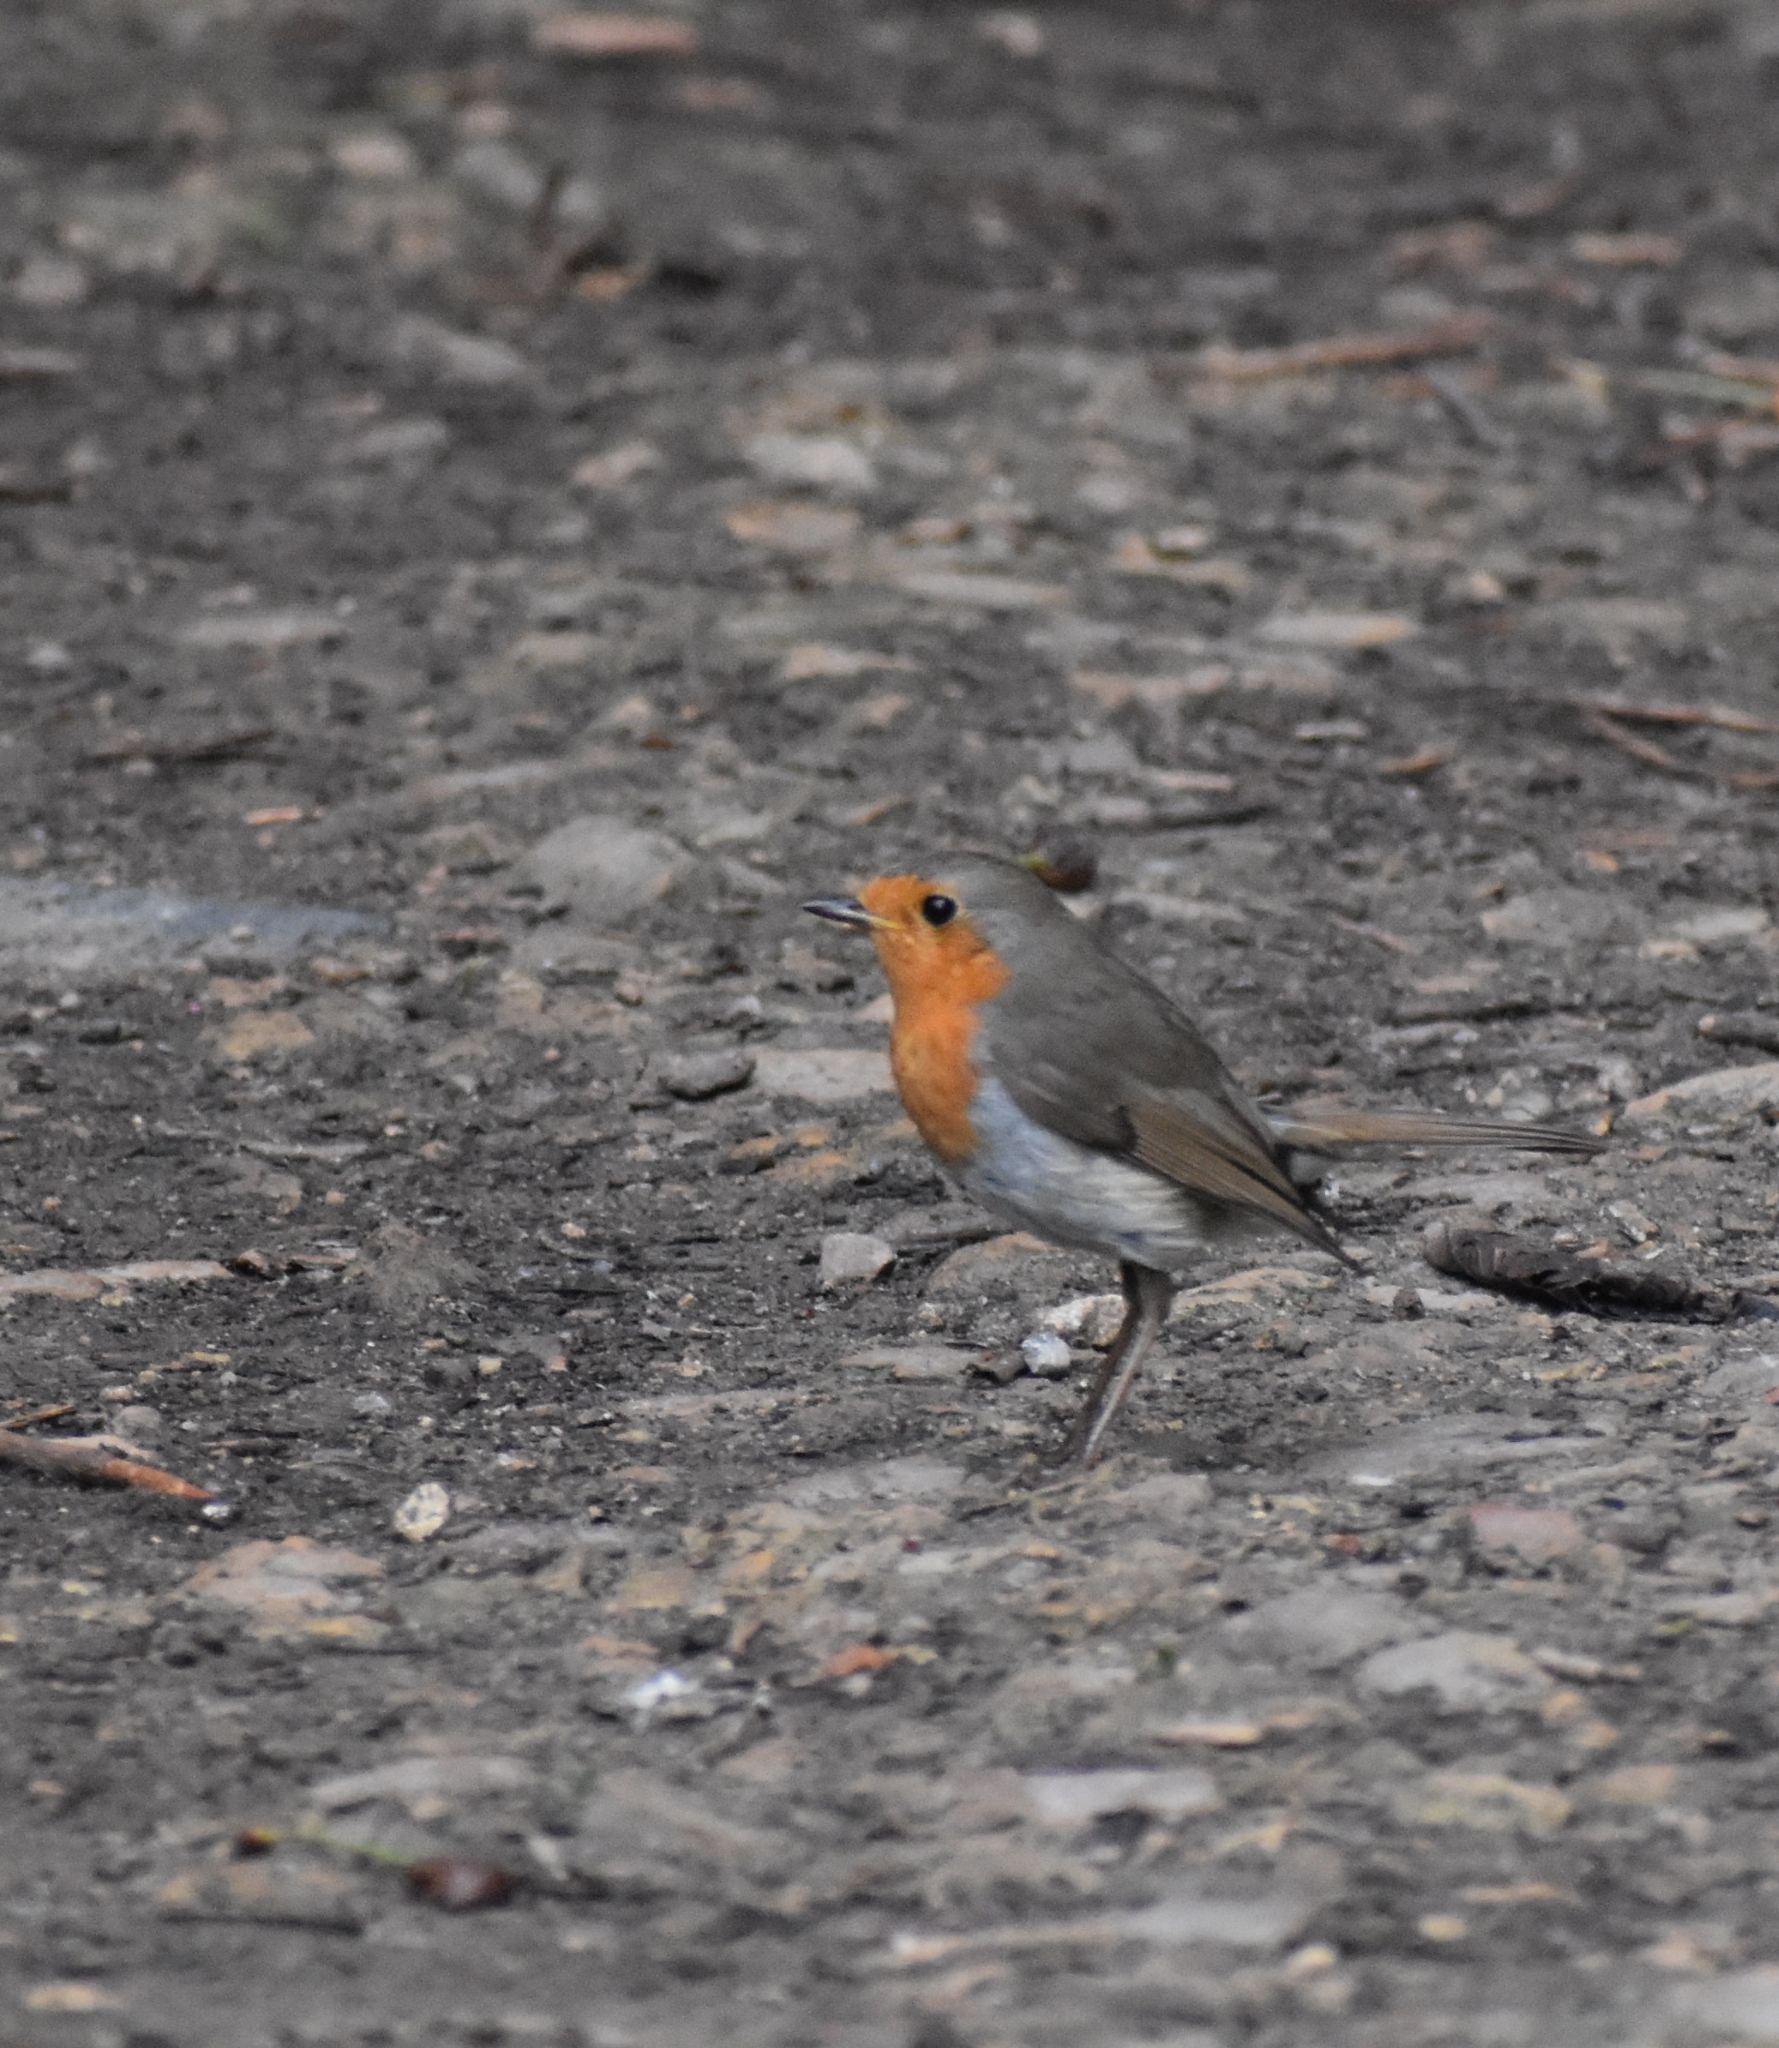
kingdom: Animalia
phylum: Chordata
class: Aves
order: Passeriformes
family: Muscicapidae
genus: Erithacus
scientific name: Erithacus rubecula
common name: European robin
